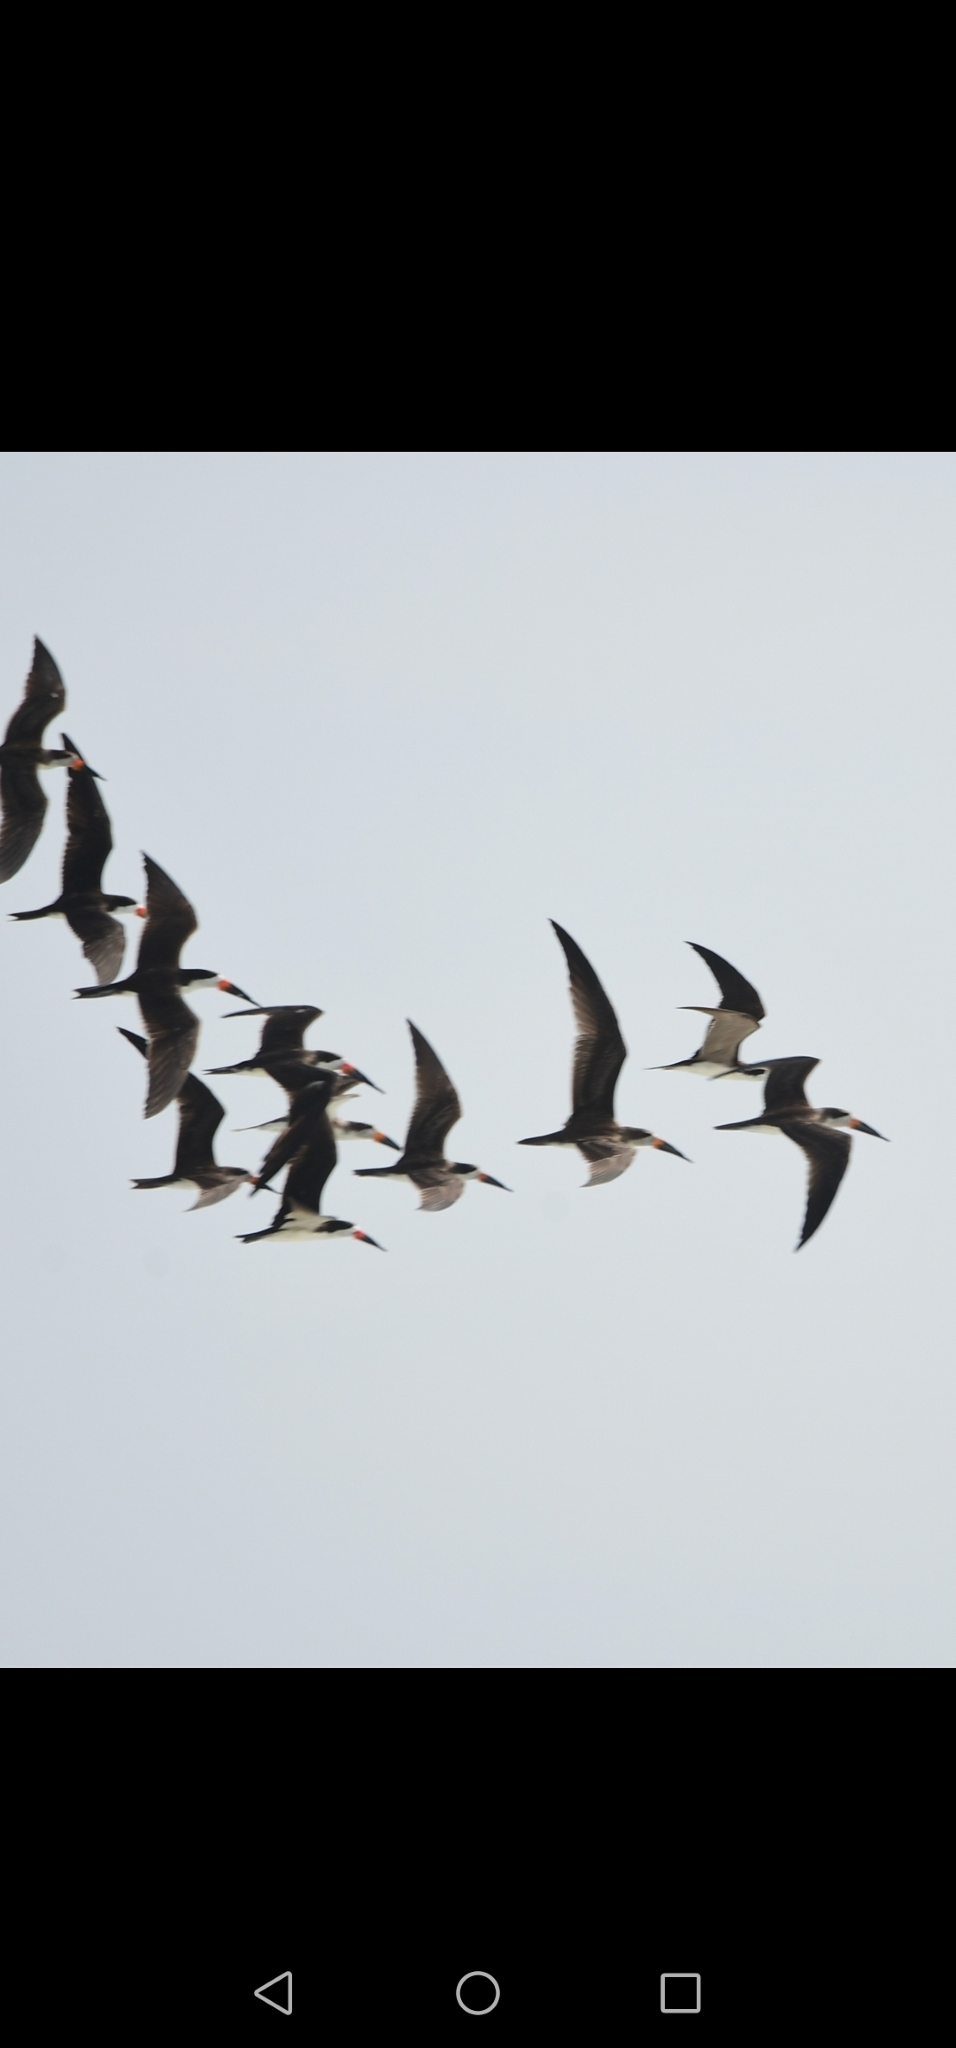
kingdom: Animalia
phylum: Chordata
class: Aves
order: Charadriiformes
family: Laridae
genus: Rynchops
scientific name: Rynchops niger
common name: Black skimmer
